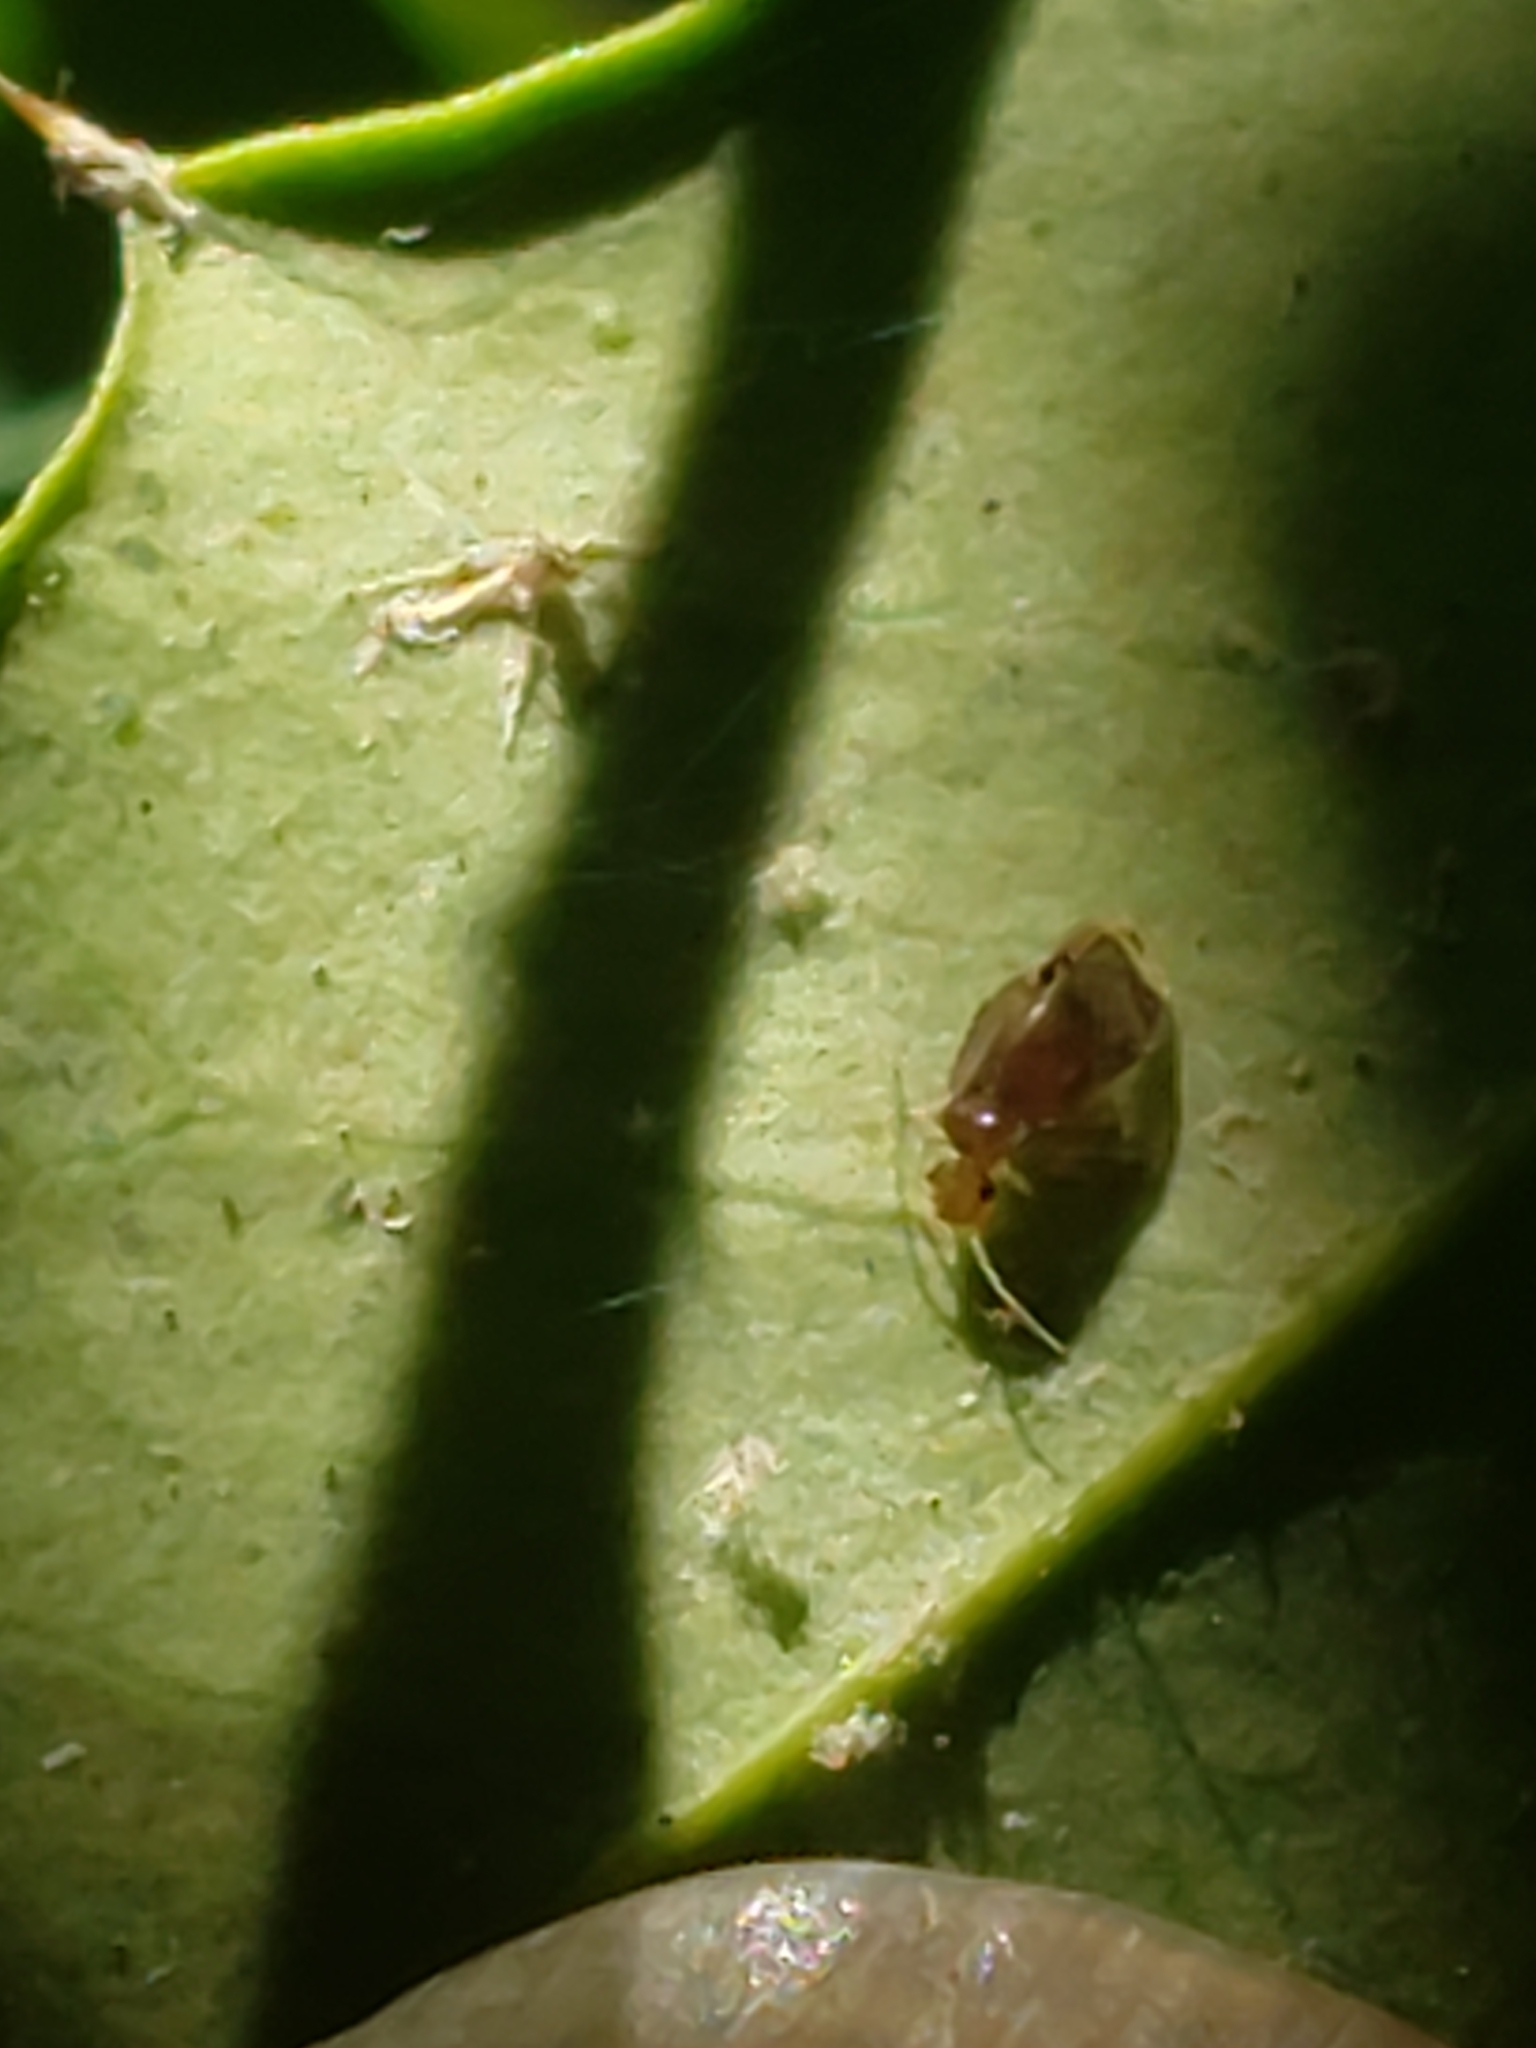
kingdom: Animalia
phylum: Arthropoda
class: Insecta
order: Psocodea
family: Amphipsocidae
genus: Polypsocus
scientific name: Polypsocus corruptus
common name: Corrupt barklouse
